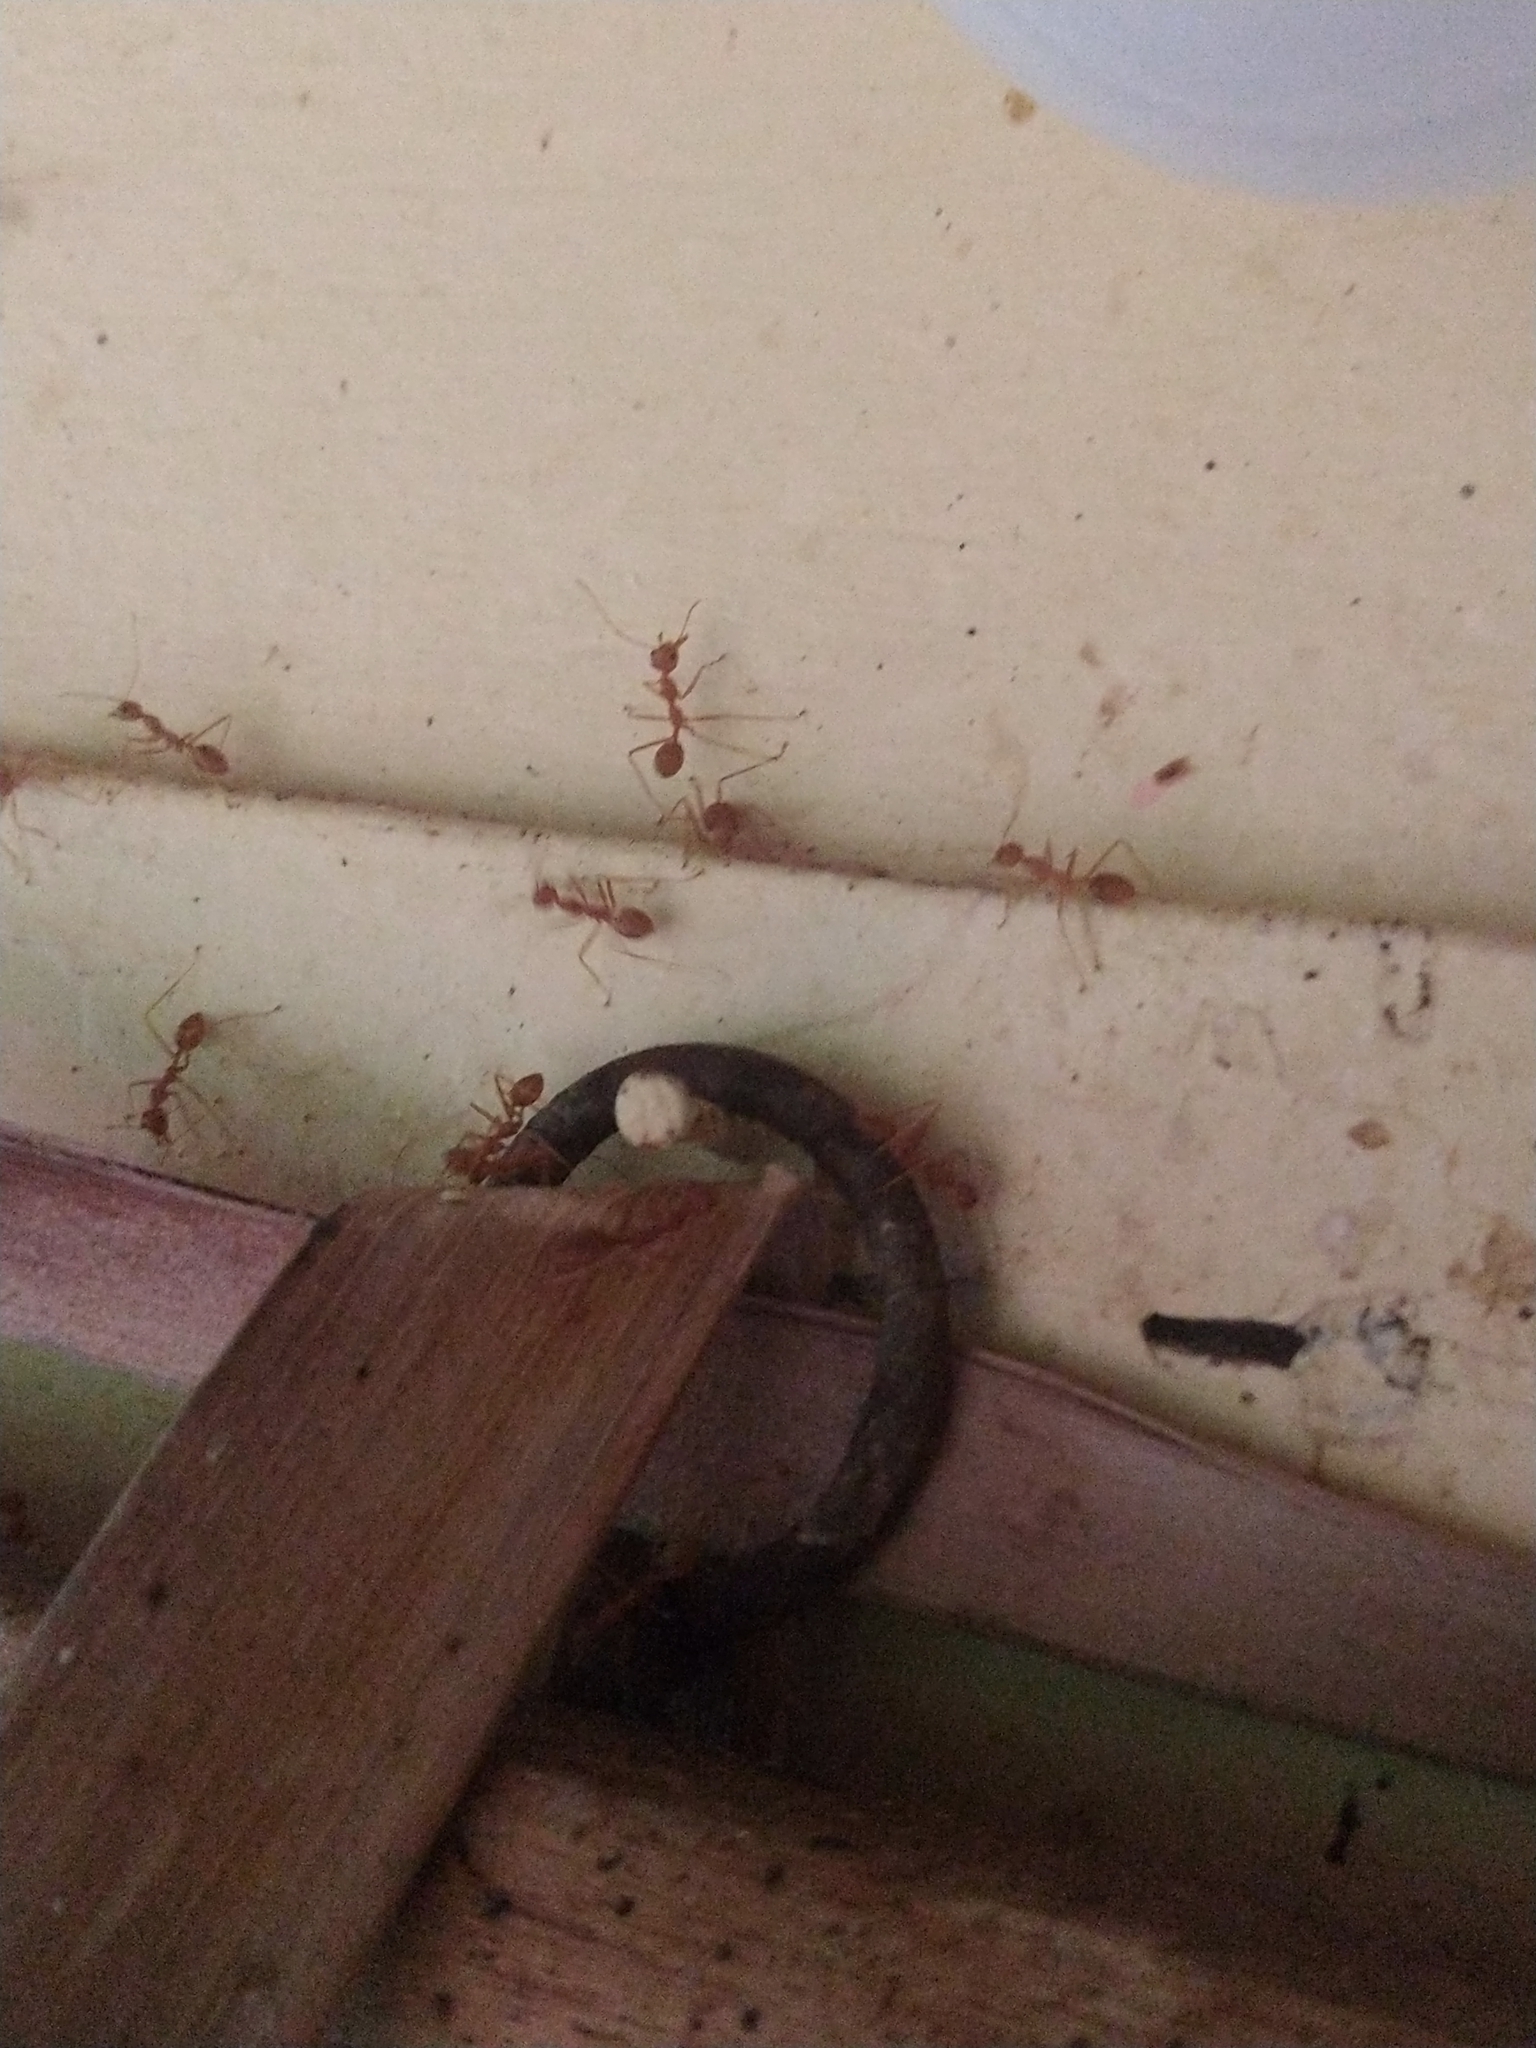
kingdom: Animalia
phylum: Arthropoda
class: Insecta
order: Hymenoptera
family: Formicidae
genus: Oecophylla
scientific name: Oecophylla smaragdina
